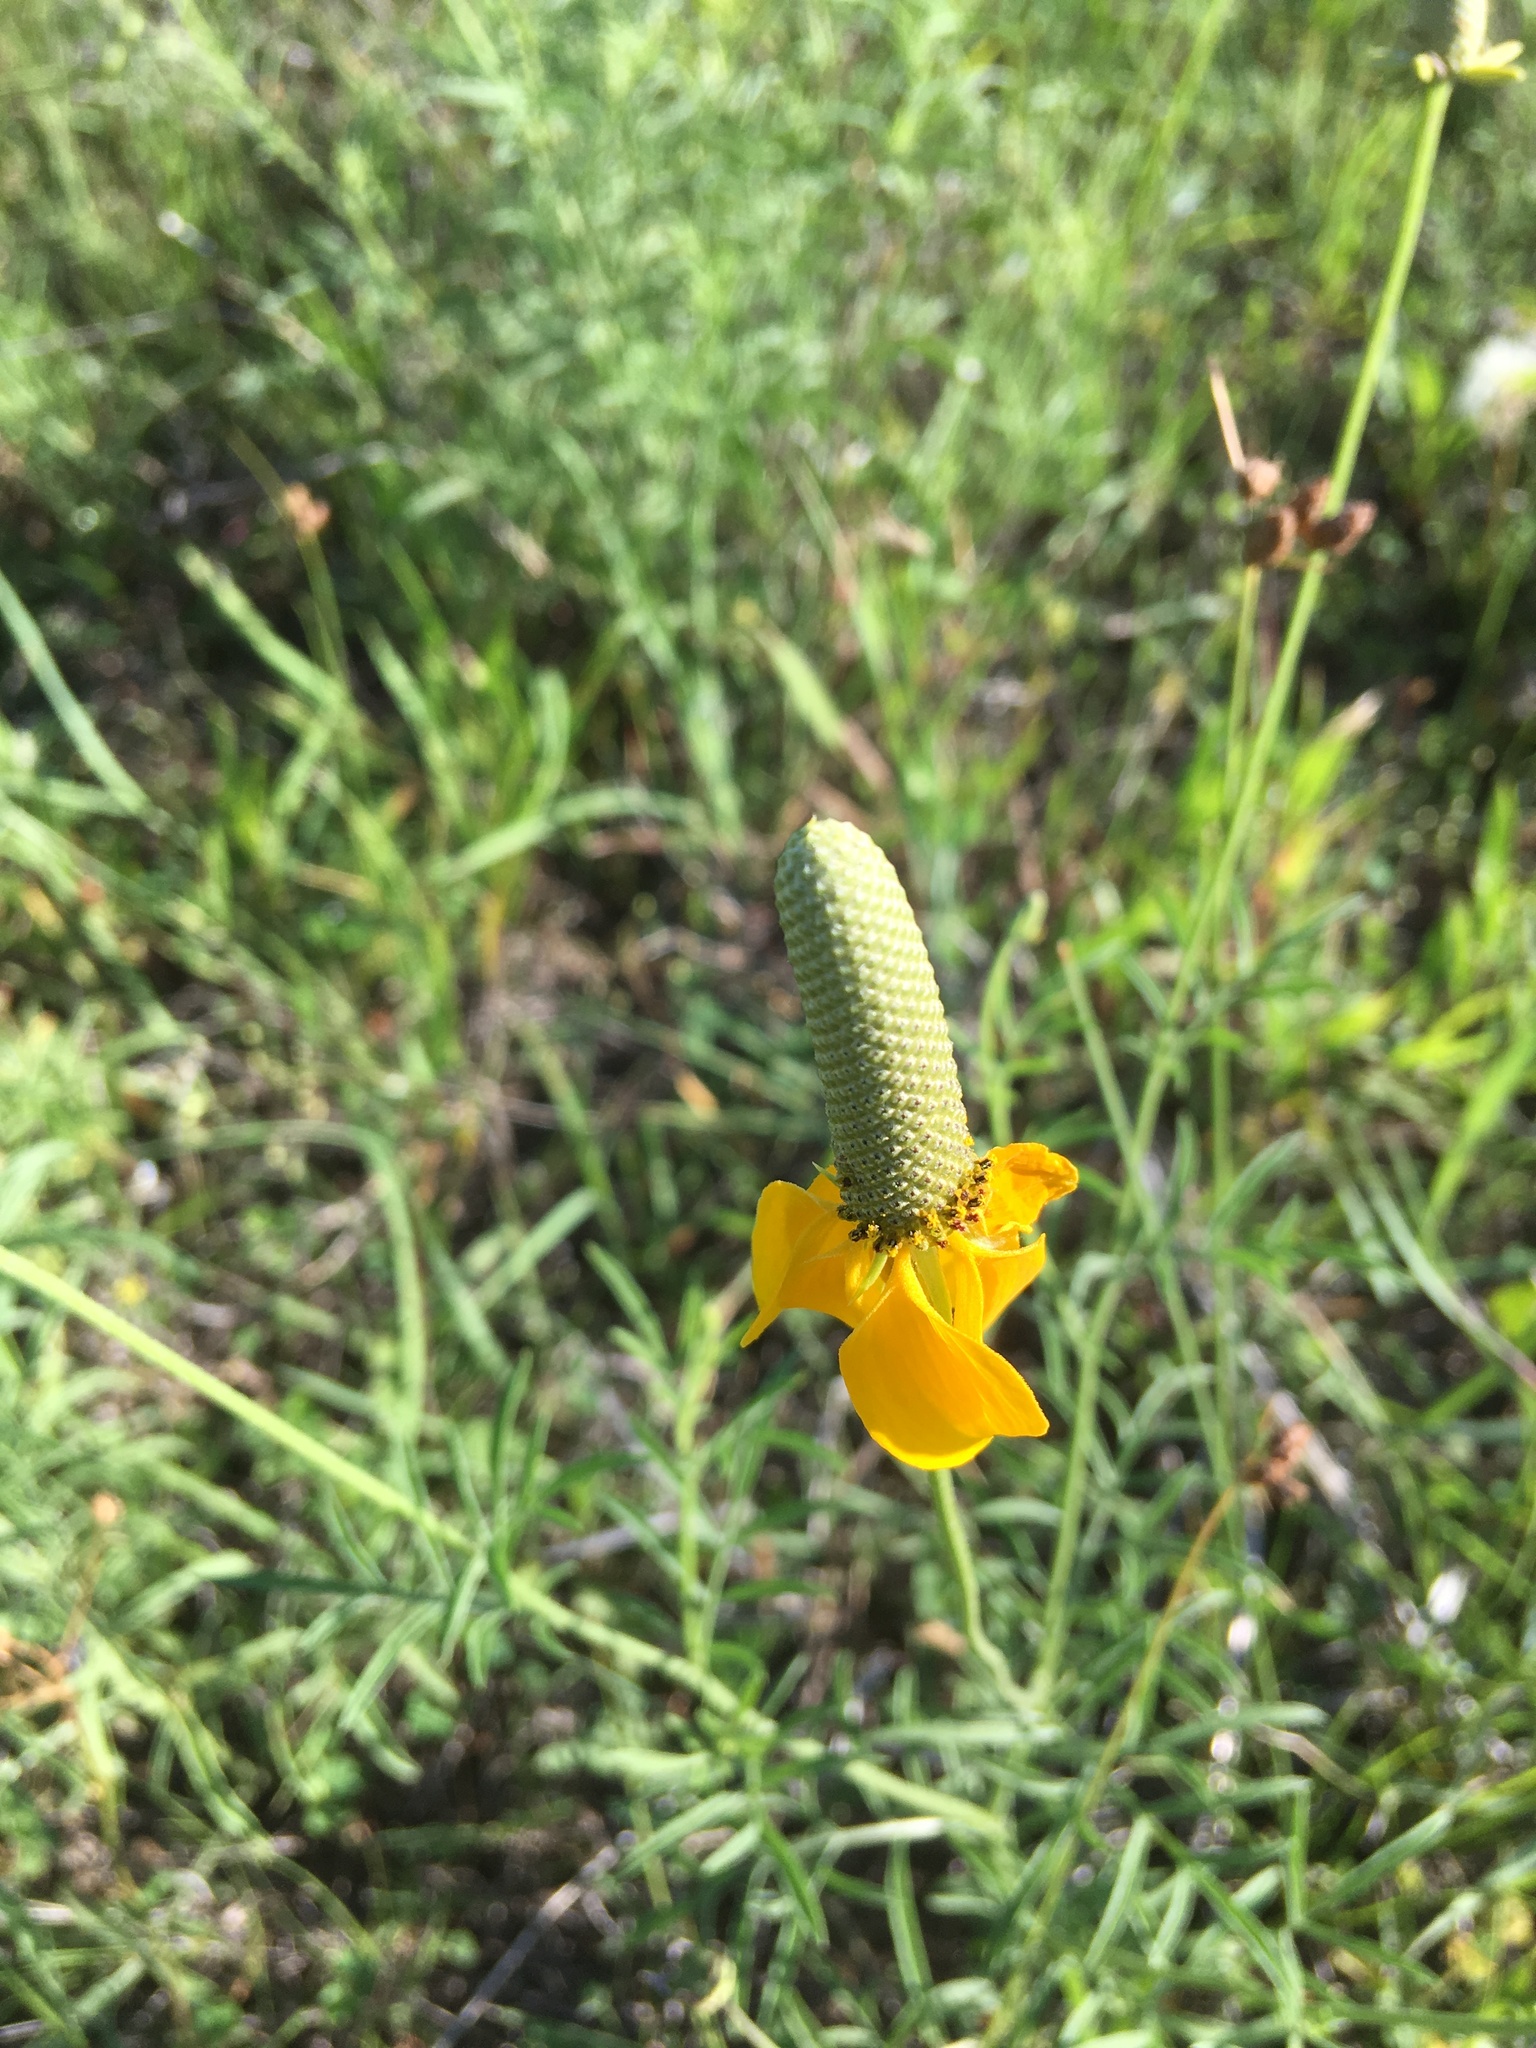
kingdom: Plantae
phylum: Tracheophyta
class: Magnoliopsida
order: Asterales
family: Asteraceae
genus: Ratibida
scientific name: Ratibida columnifera
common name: Prairie coneflower
